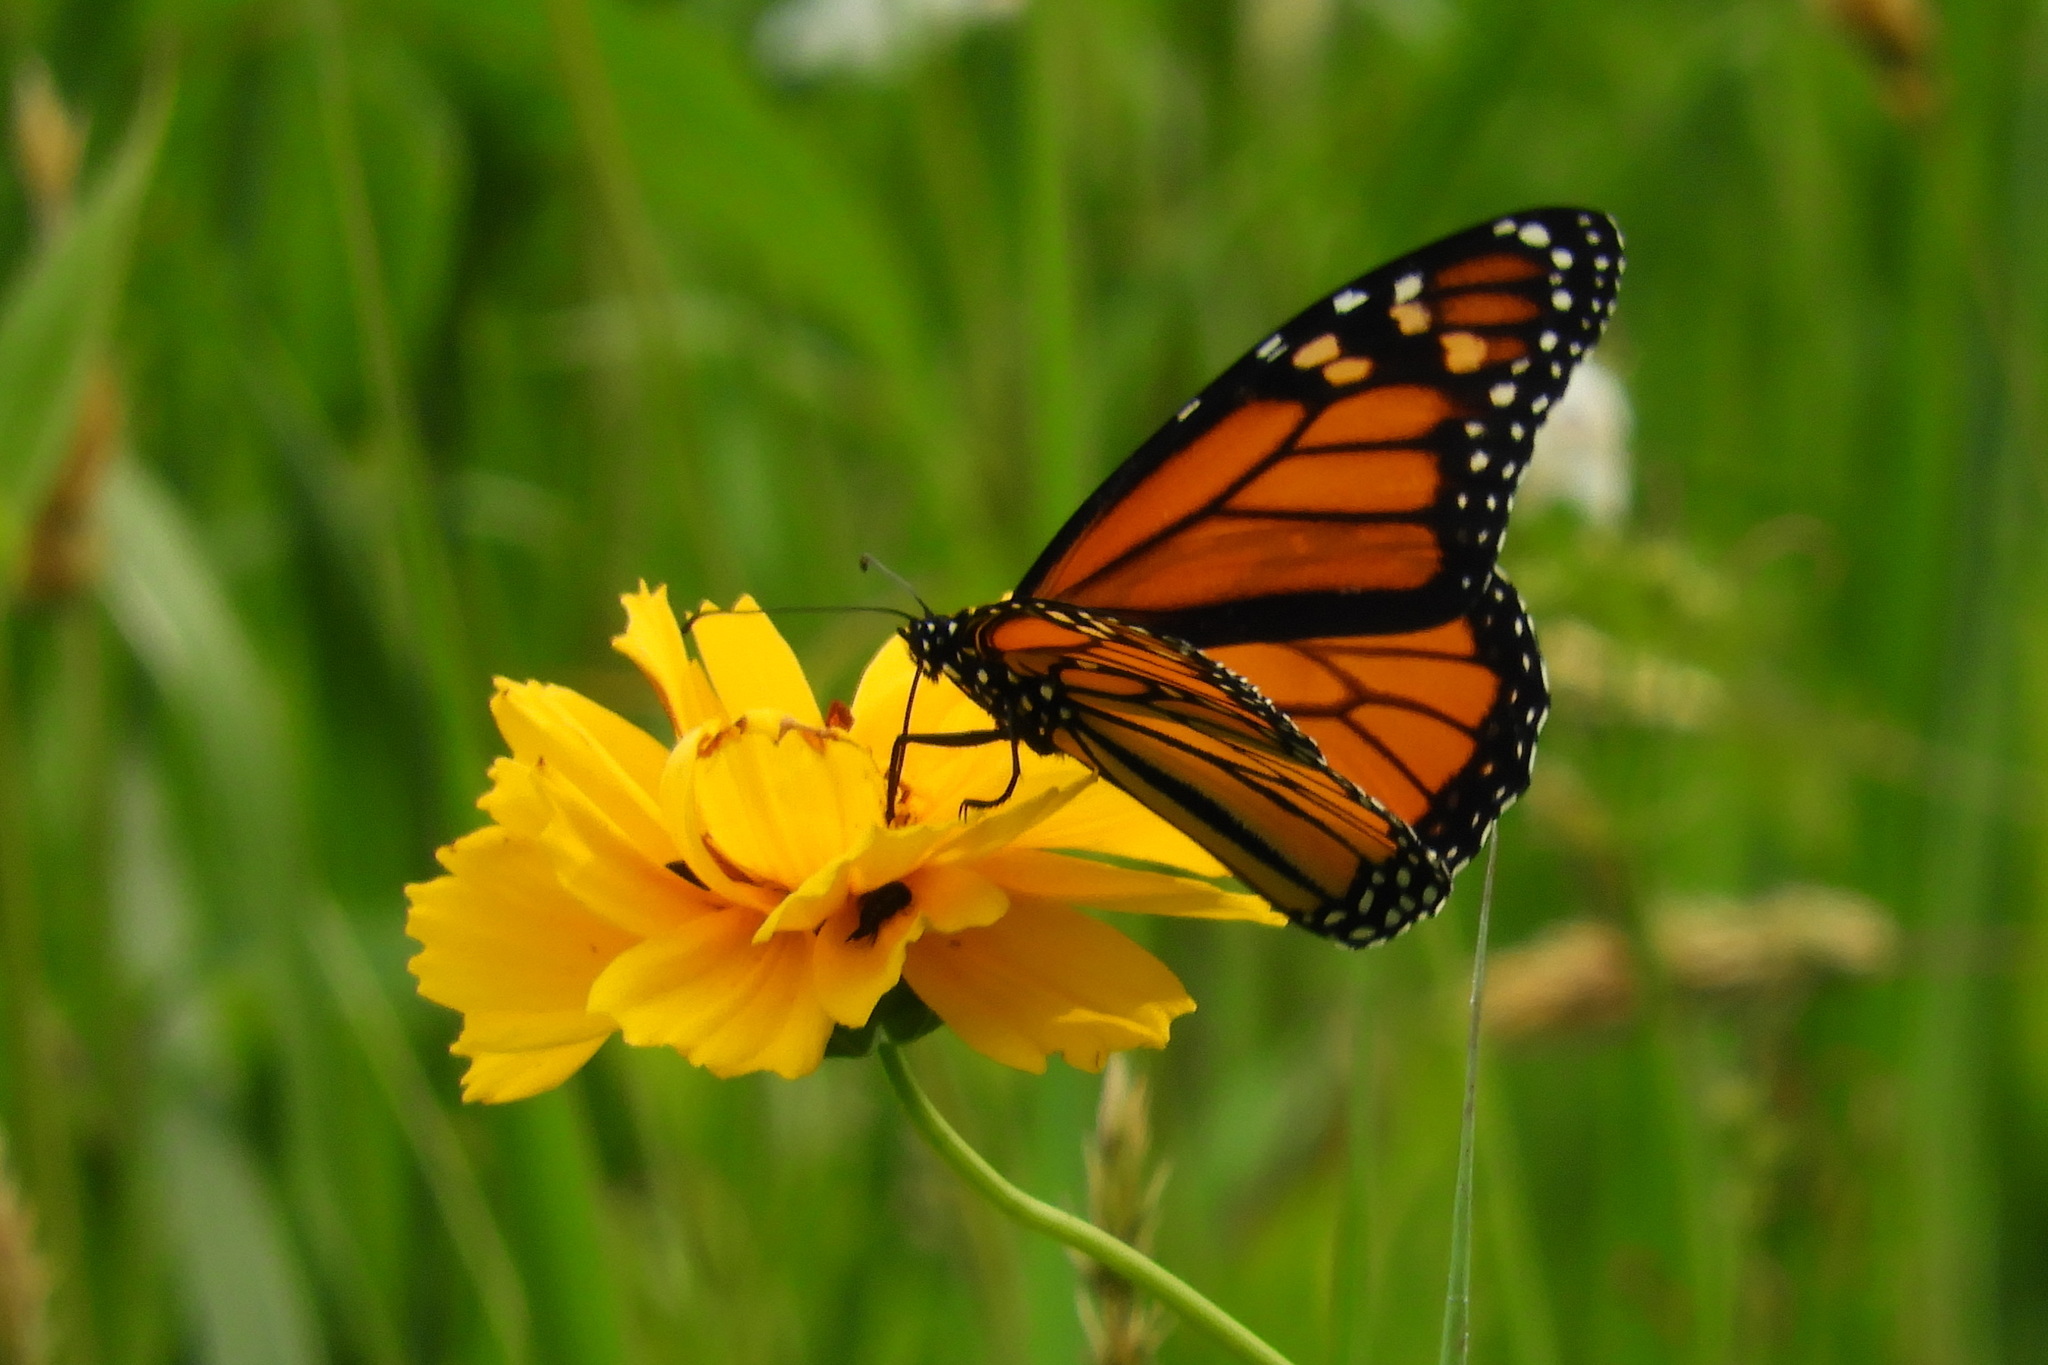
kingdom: Animalia
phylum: Arthropoda
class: Insecta
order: Lepidoptera
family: Nymphalidae
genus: Danaus
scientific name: Danaus plexippus
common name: Monarch
